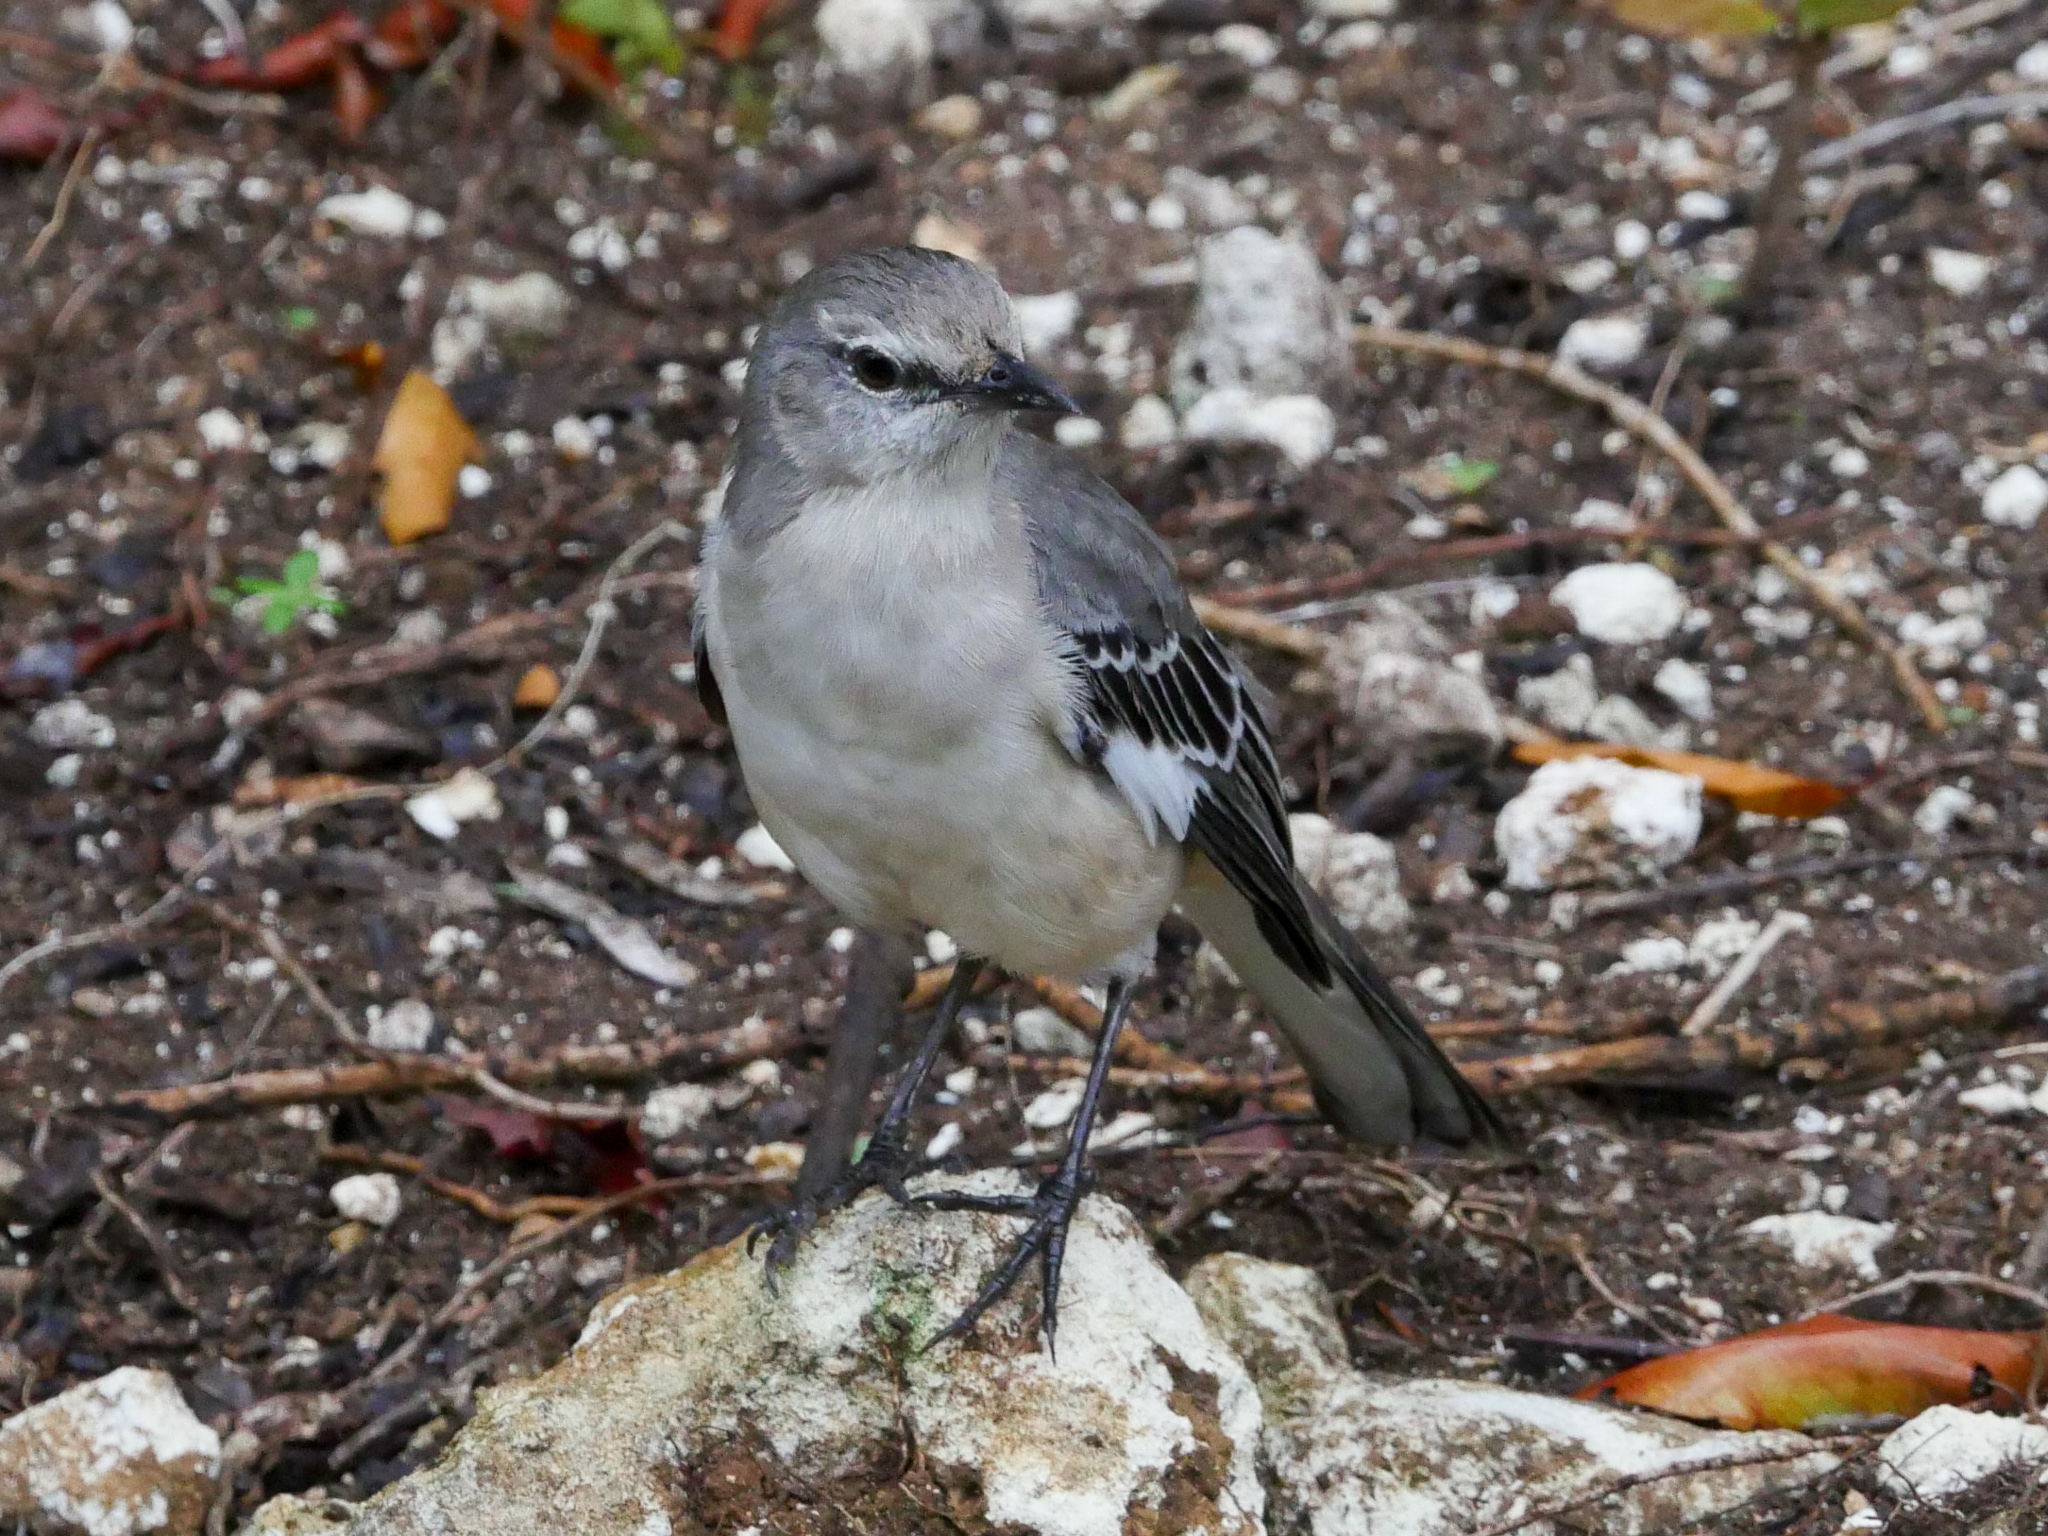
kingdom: Animalia
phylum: Chordata
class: Aves
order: Passeriformes
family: Mimidae
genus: Mimus
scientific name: Mimus polyglottos
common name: Northern mockingbird
